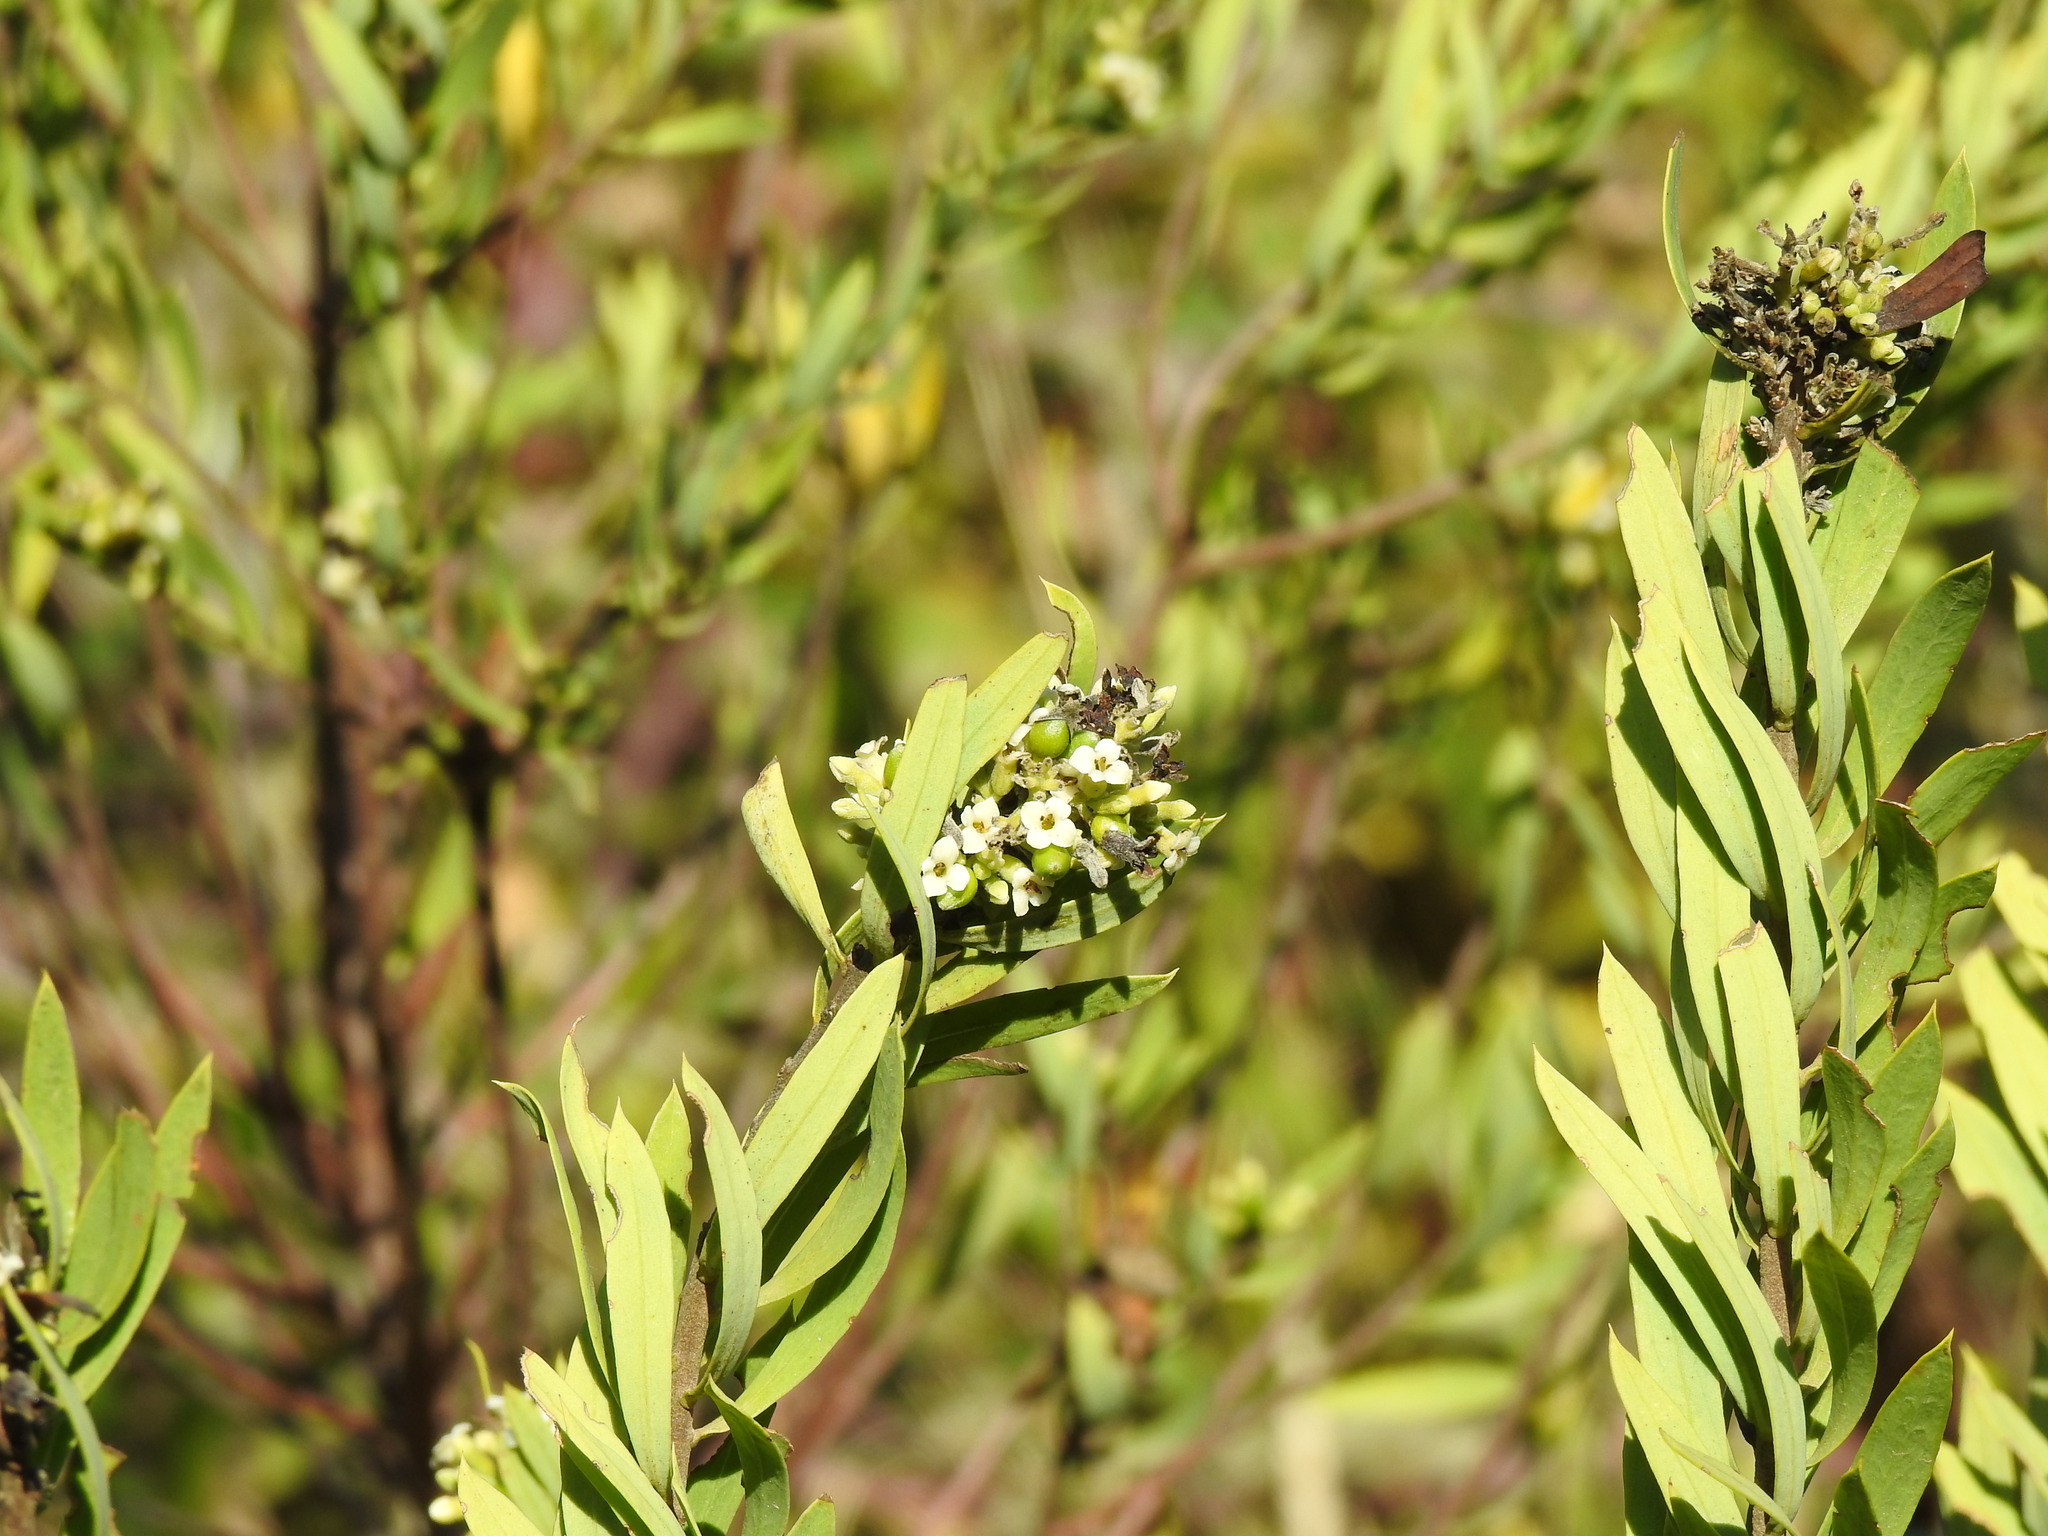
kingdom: Plantae
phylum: Tracheophyta
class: Magnoliopsida
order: Malvales
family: Thymelaeaceae
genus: Daphne
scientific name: Daphne gnidium
